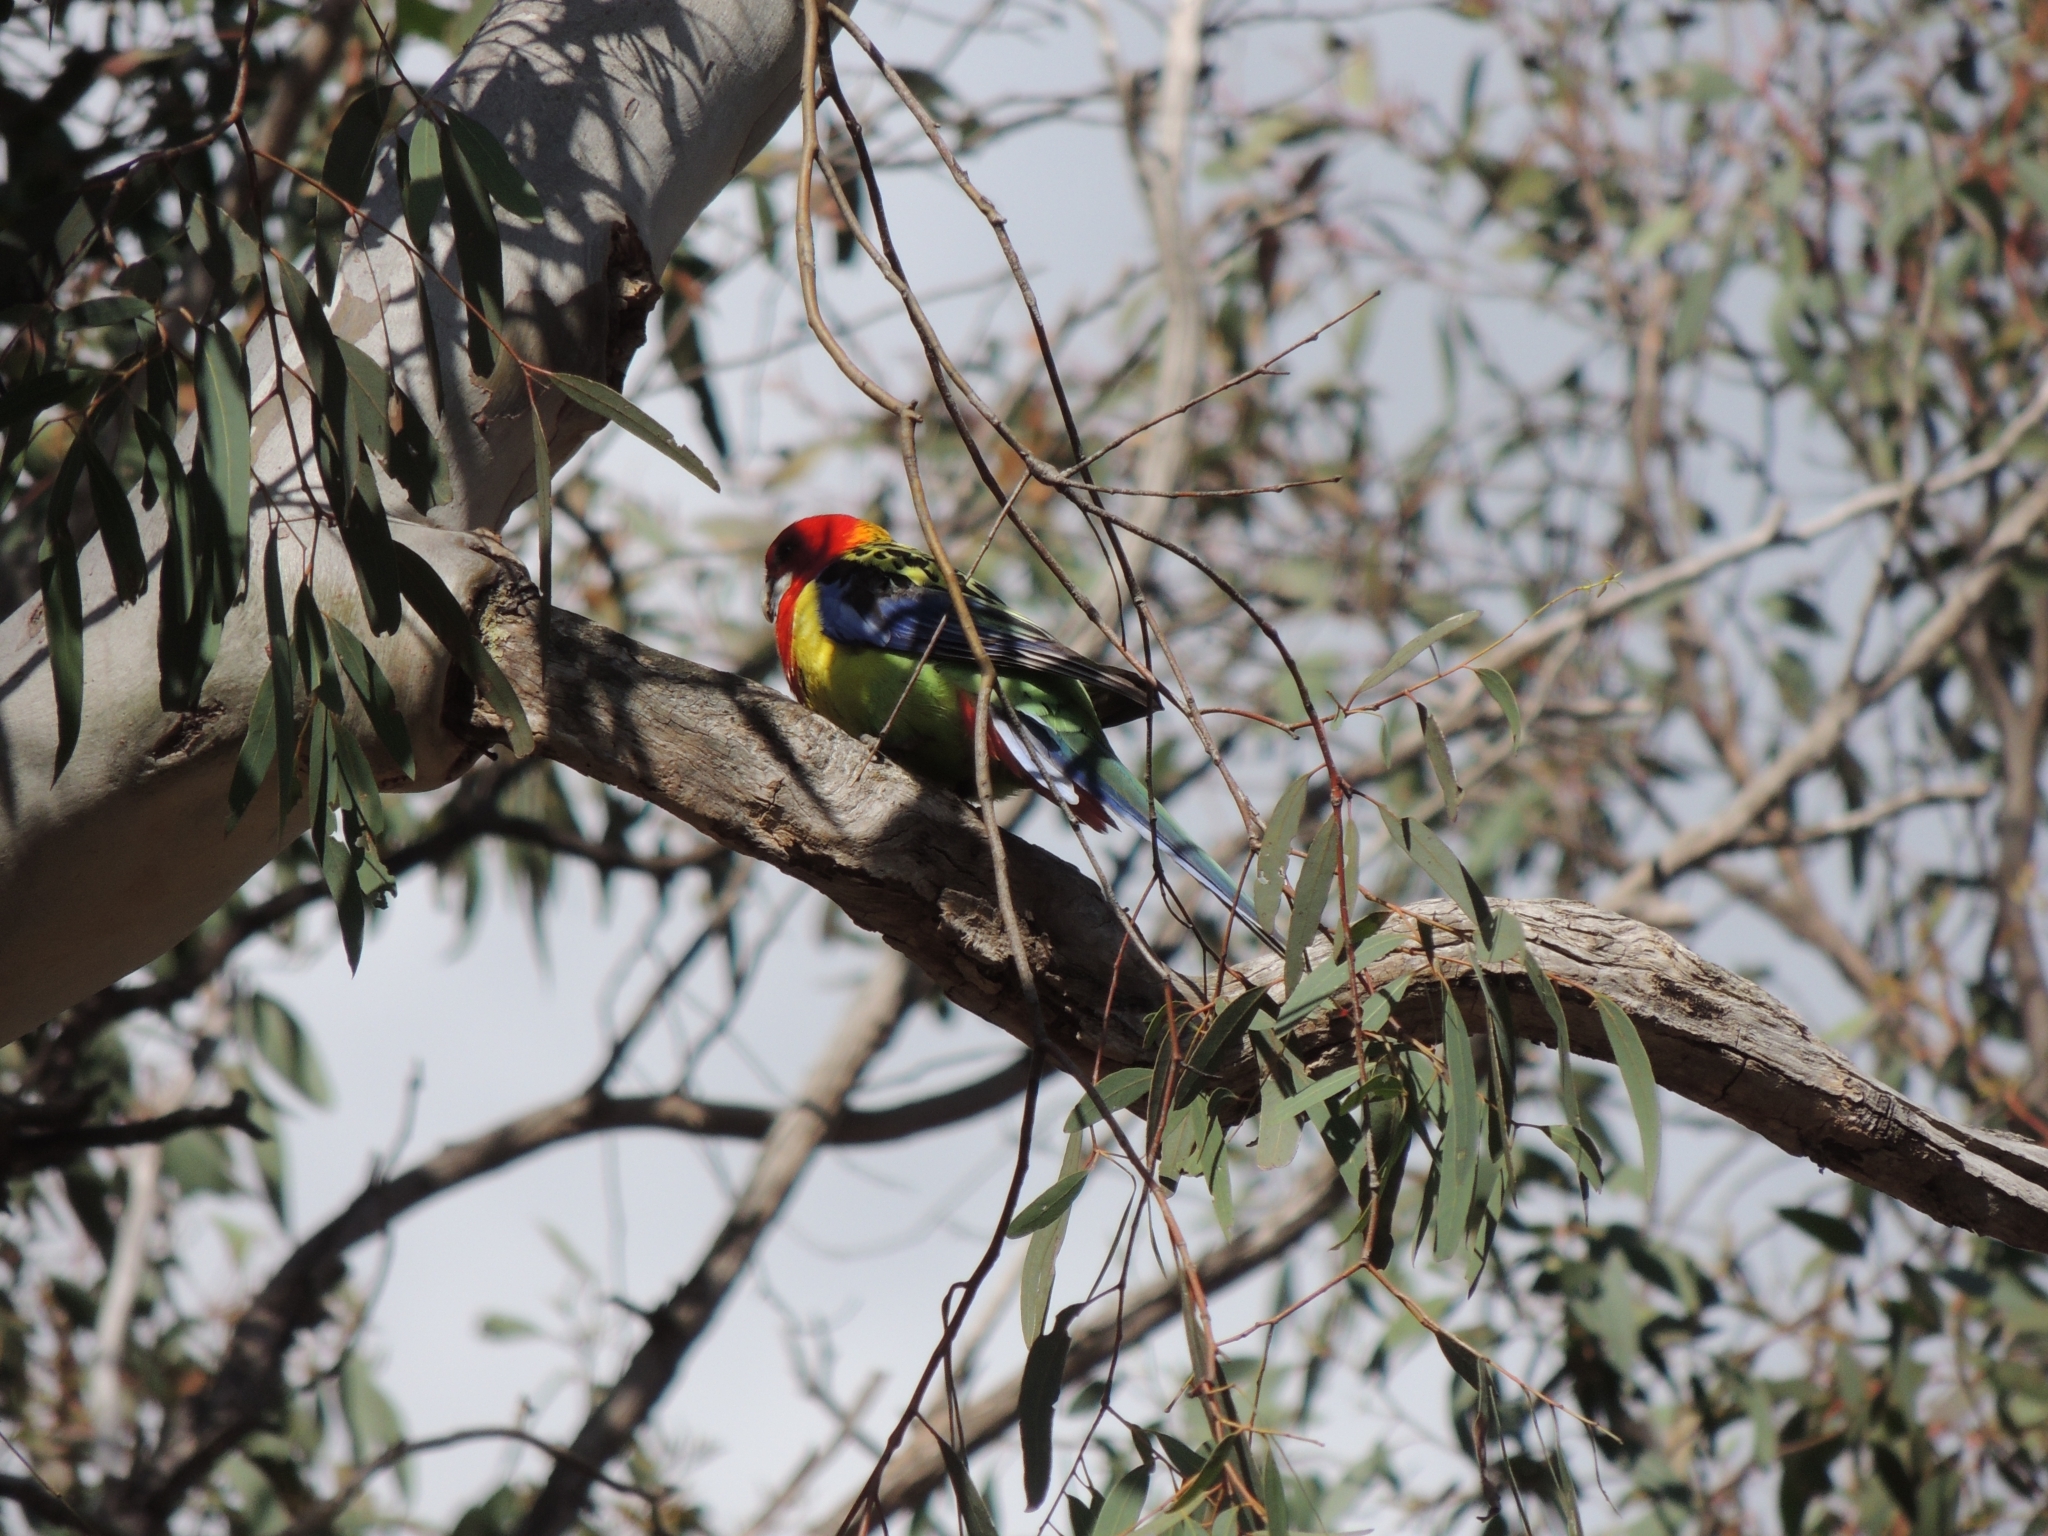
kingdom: Animalia
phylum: Chordata
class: Aves
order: Psittaciformes
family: Psittacidae
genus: Platycercus
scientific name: Platycercus eximius
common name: Eastern rosella
